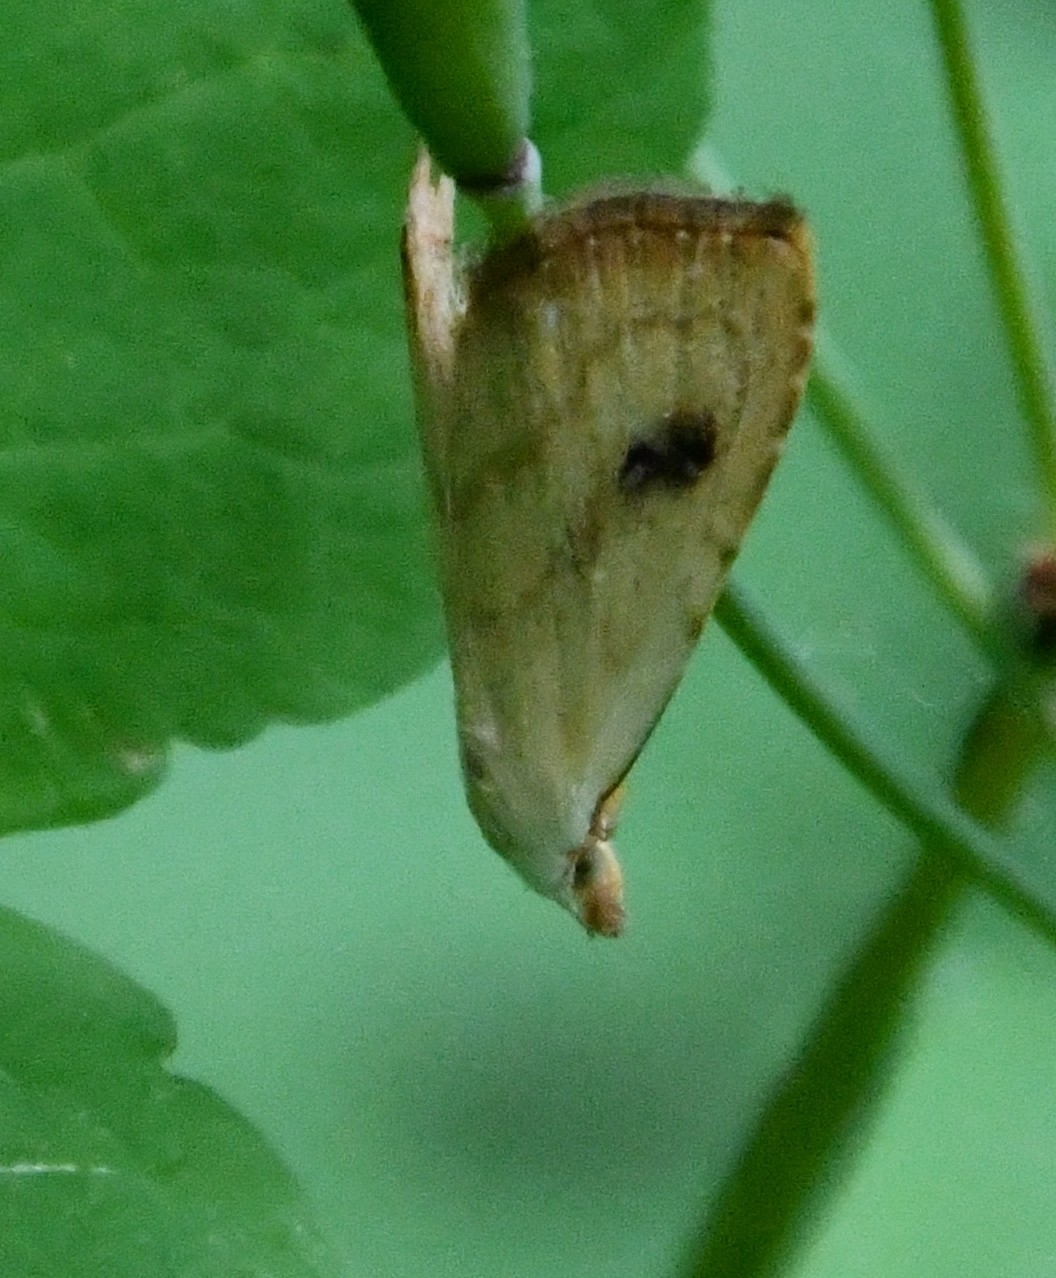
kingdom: Animalia
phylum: Arthropoda
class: Insecta
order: Lepidoptera
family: Erebidae
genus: Rivula
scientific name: Rivula sericealis
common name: Straw dot
